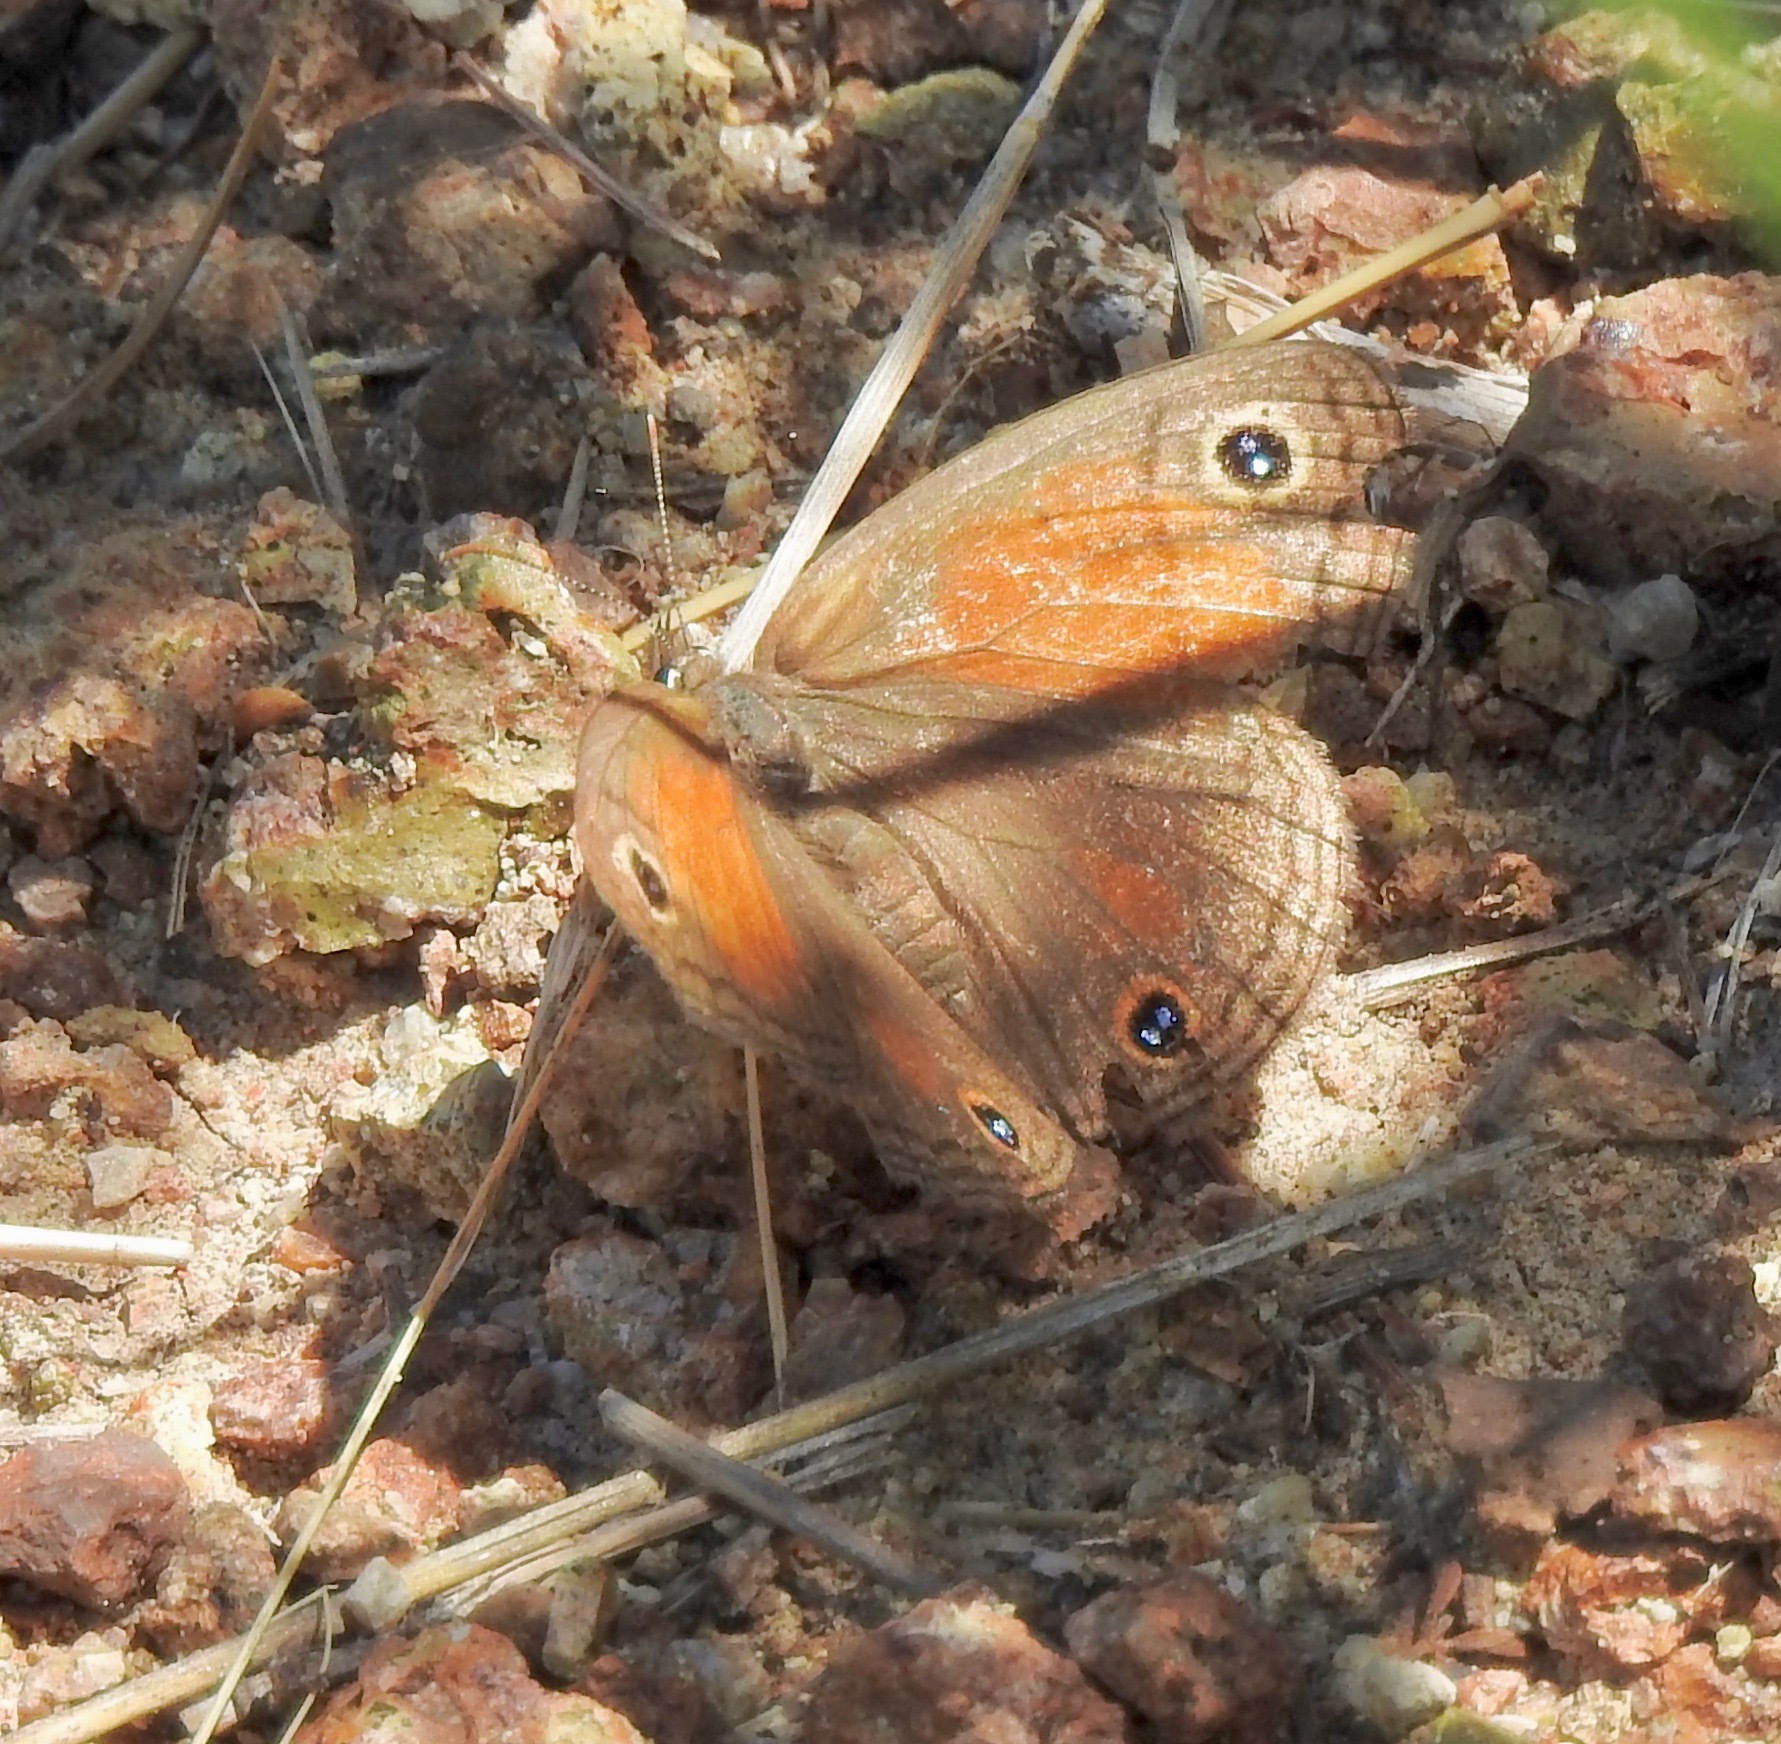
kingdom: Animalia
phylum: Arthropoda
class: Insecta
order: Lepidoptera
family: Nymphalidae
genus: Euptychia
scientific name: Euptychia Cissia rubricata
